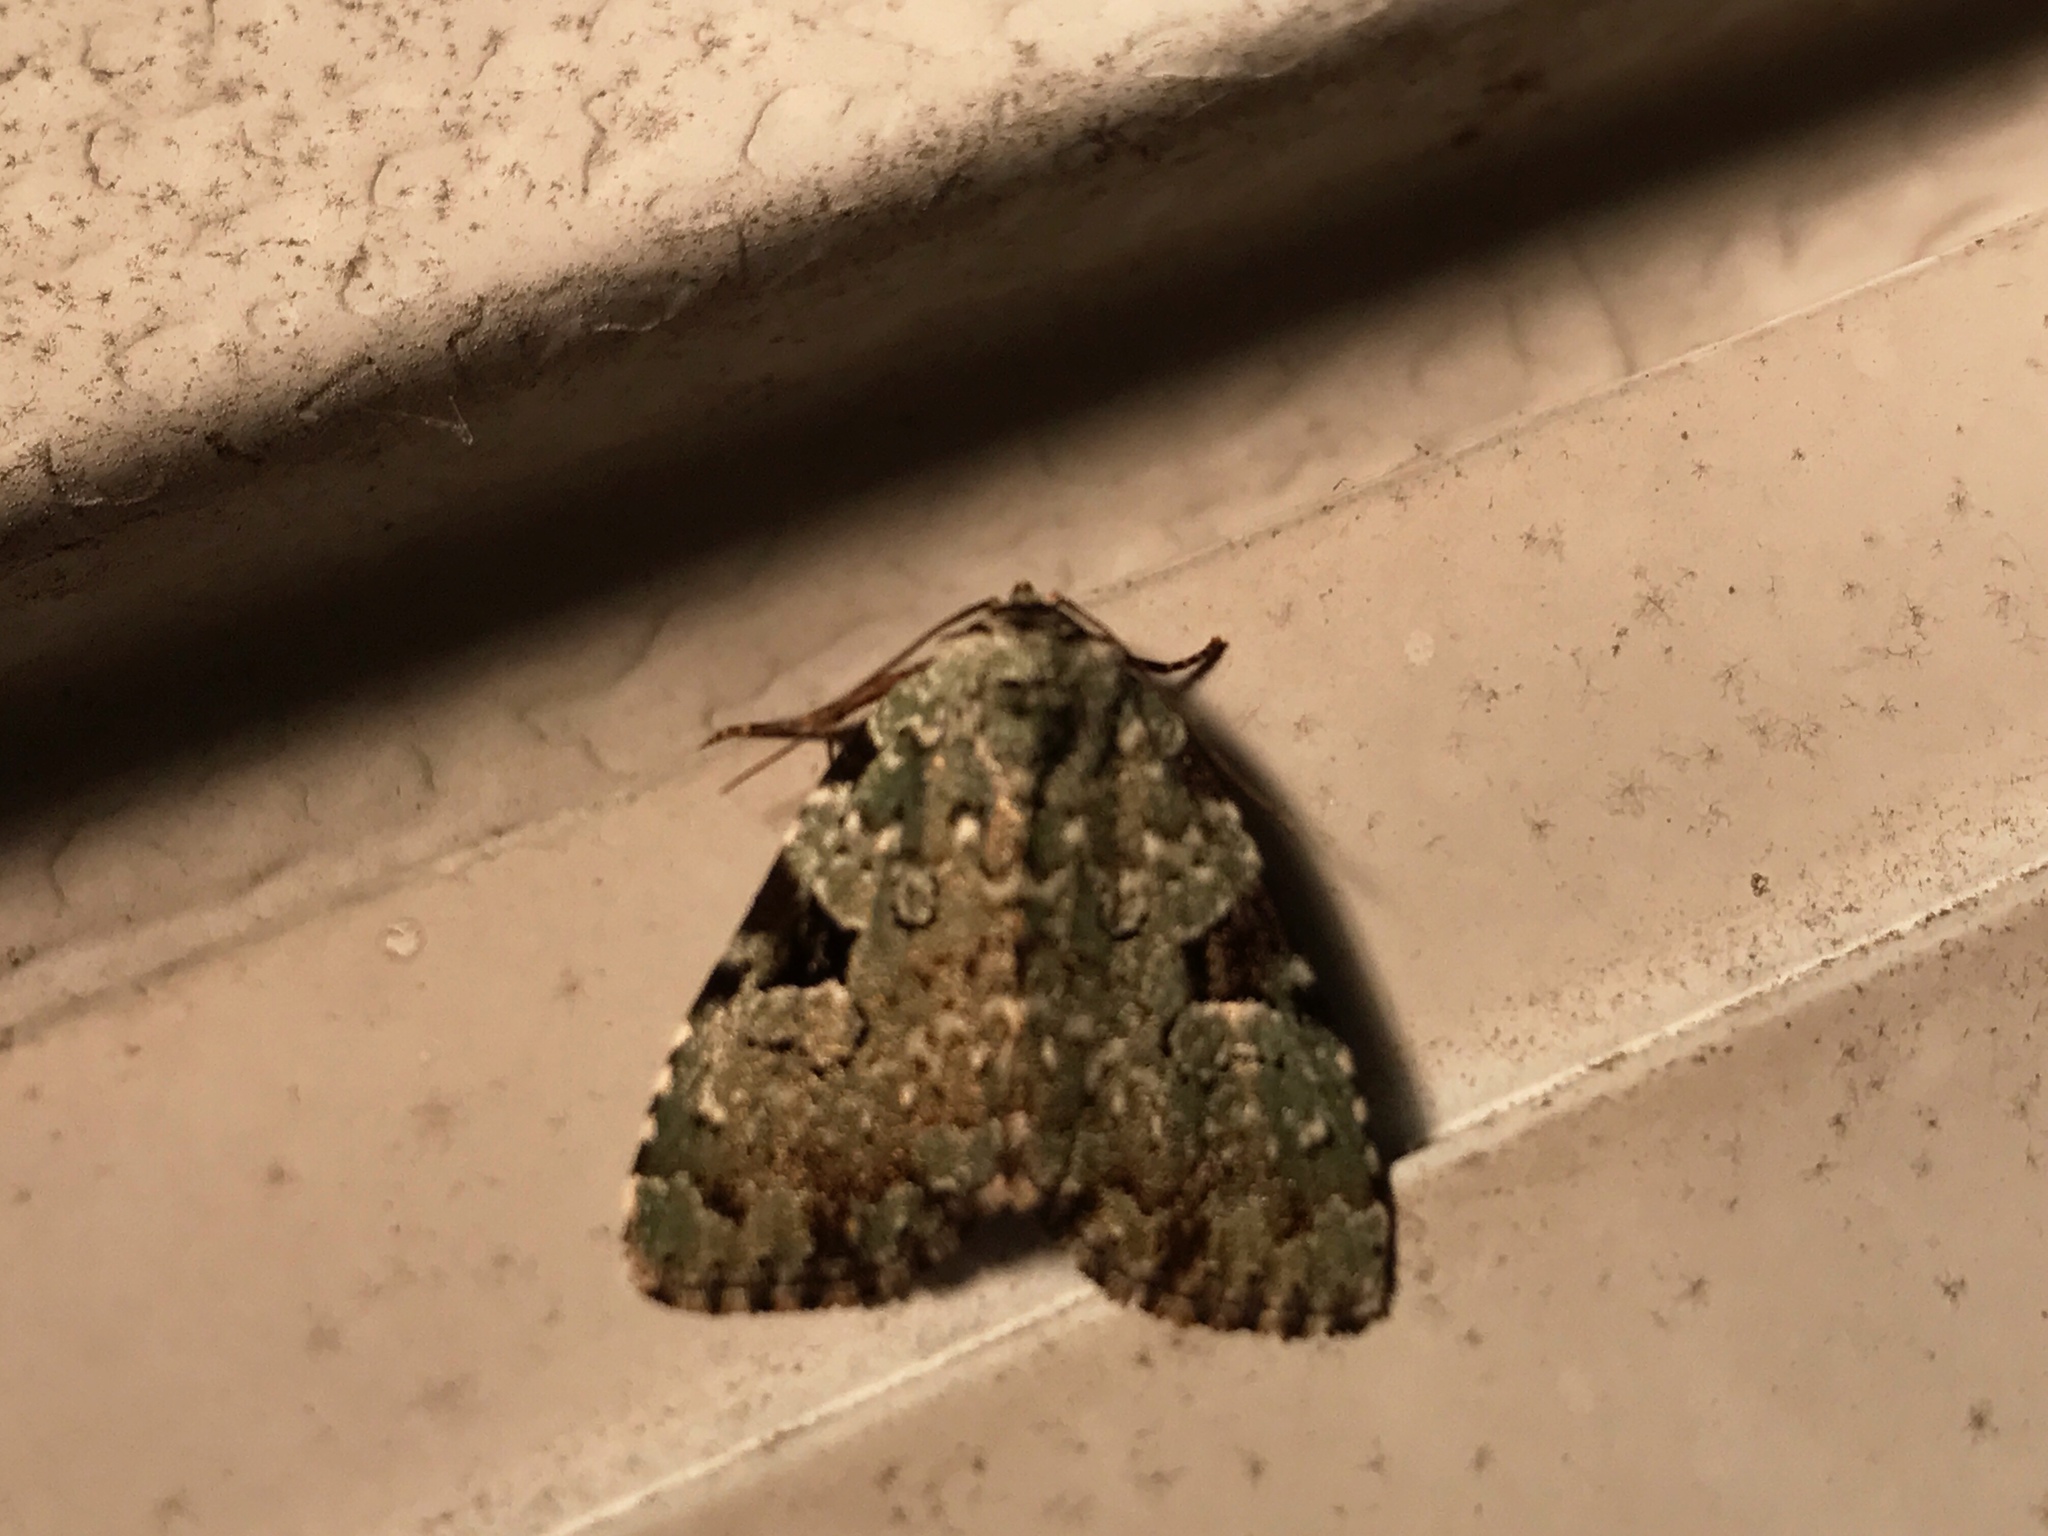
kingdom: Animalia
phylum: Arthropoda
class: Insecta
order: Lepidoptera
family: Noctuidae
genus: Leuconycta
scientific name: Leuconycta diphteroides
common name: Green leuconycta moth
